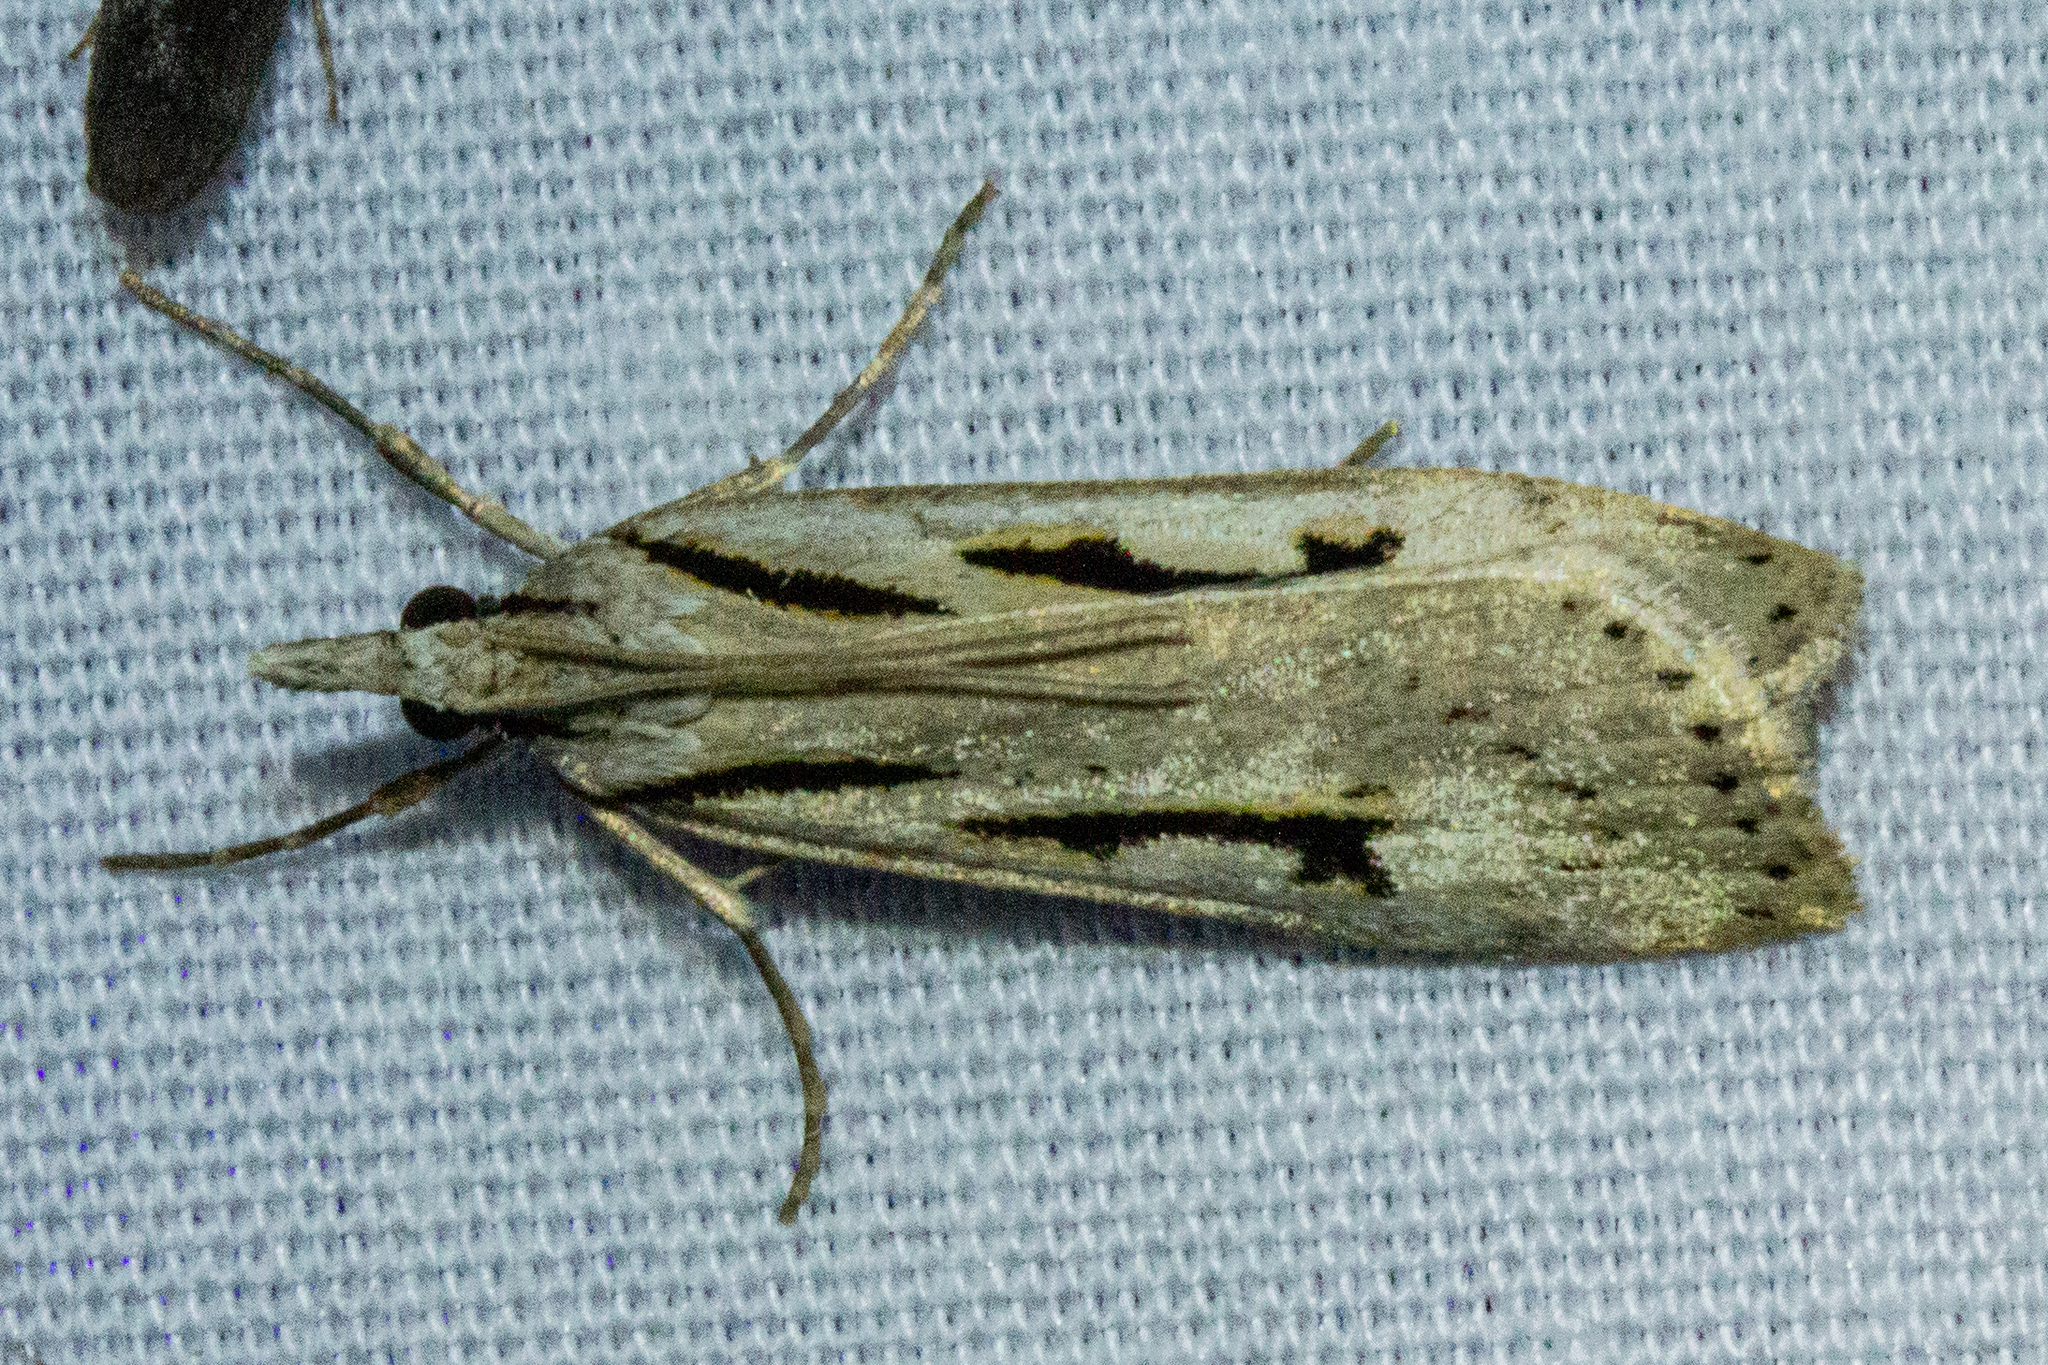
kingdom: Animalia
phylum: Arthropoda
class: Insecta
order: Lepidoptera
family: Crambidae
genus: Scoparia
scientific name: Scoparia rotuellus
